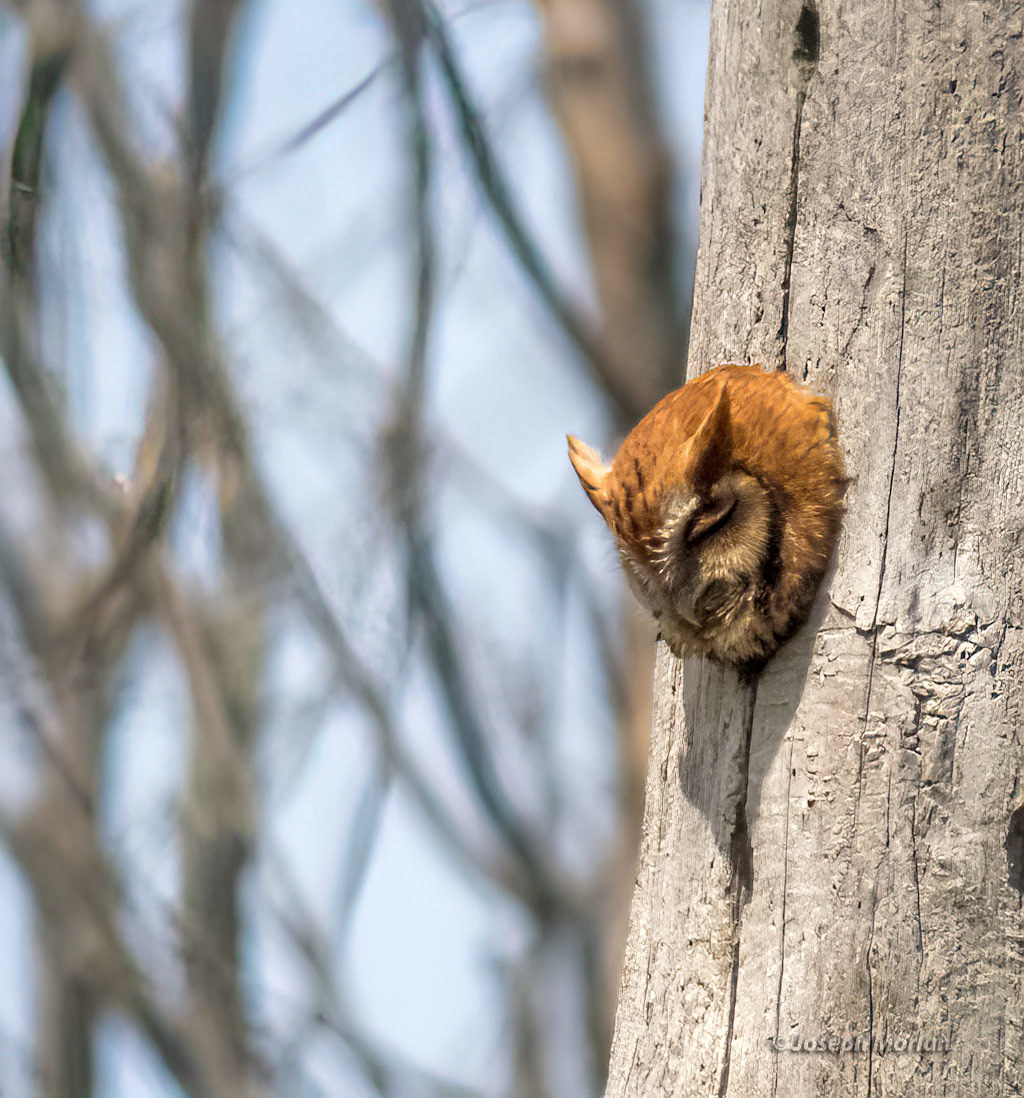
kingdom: Animalia
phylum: Chordata
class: Aves
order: Strigiformes
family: Strigidae
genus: Megascops
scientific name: Megascops asio
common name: Eastern screech-owl
